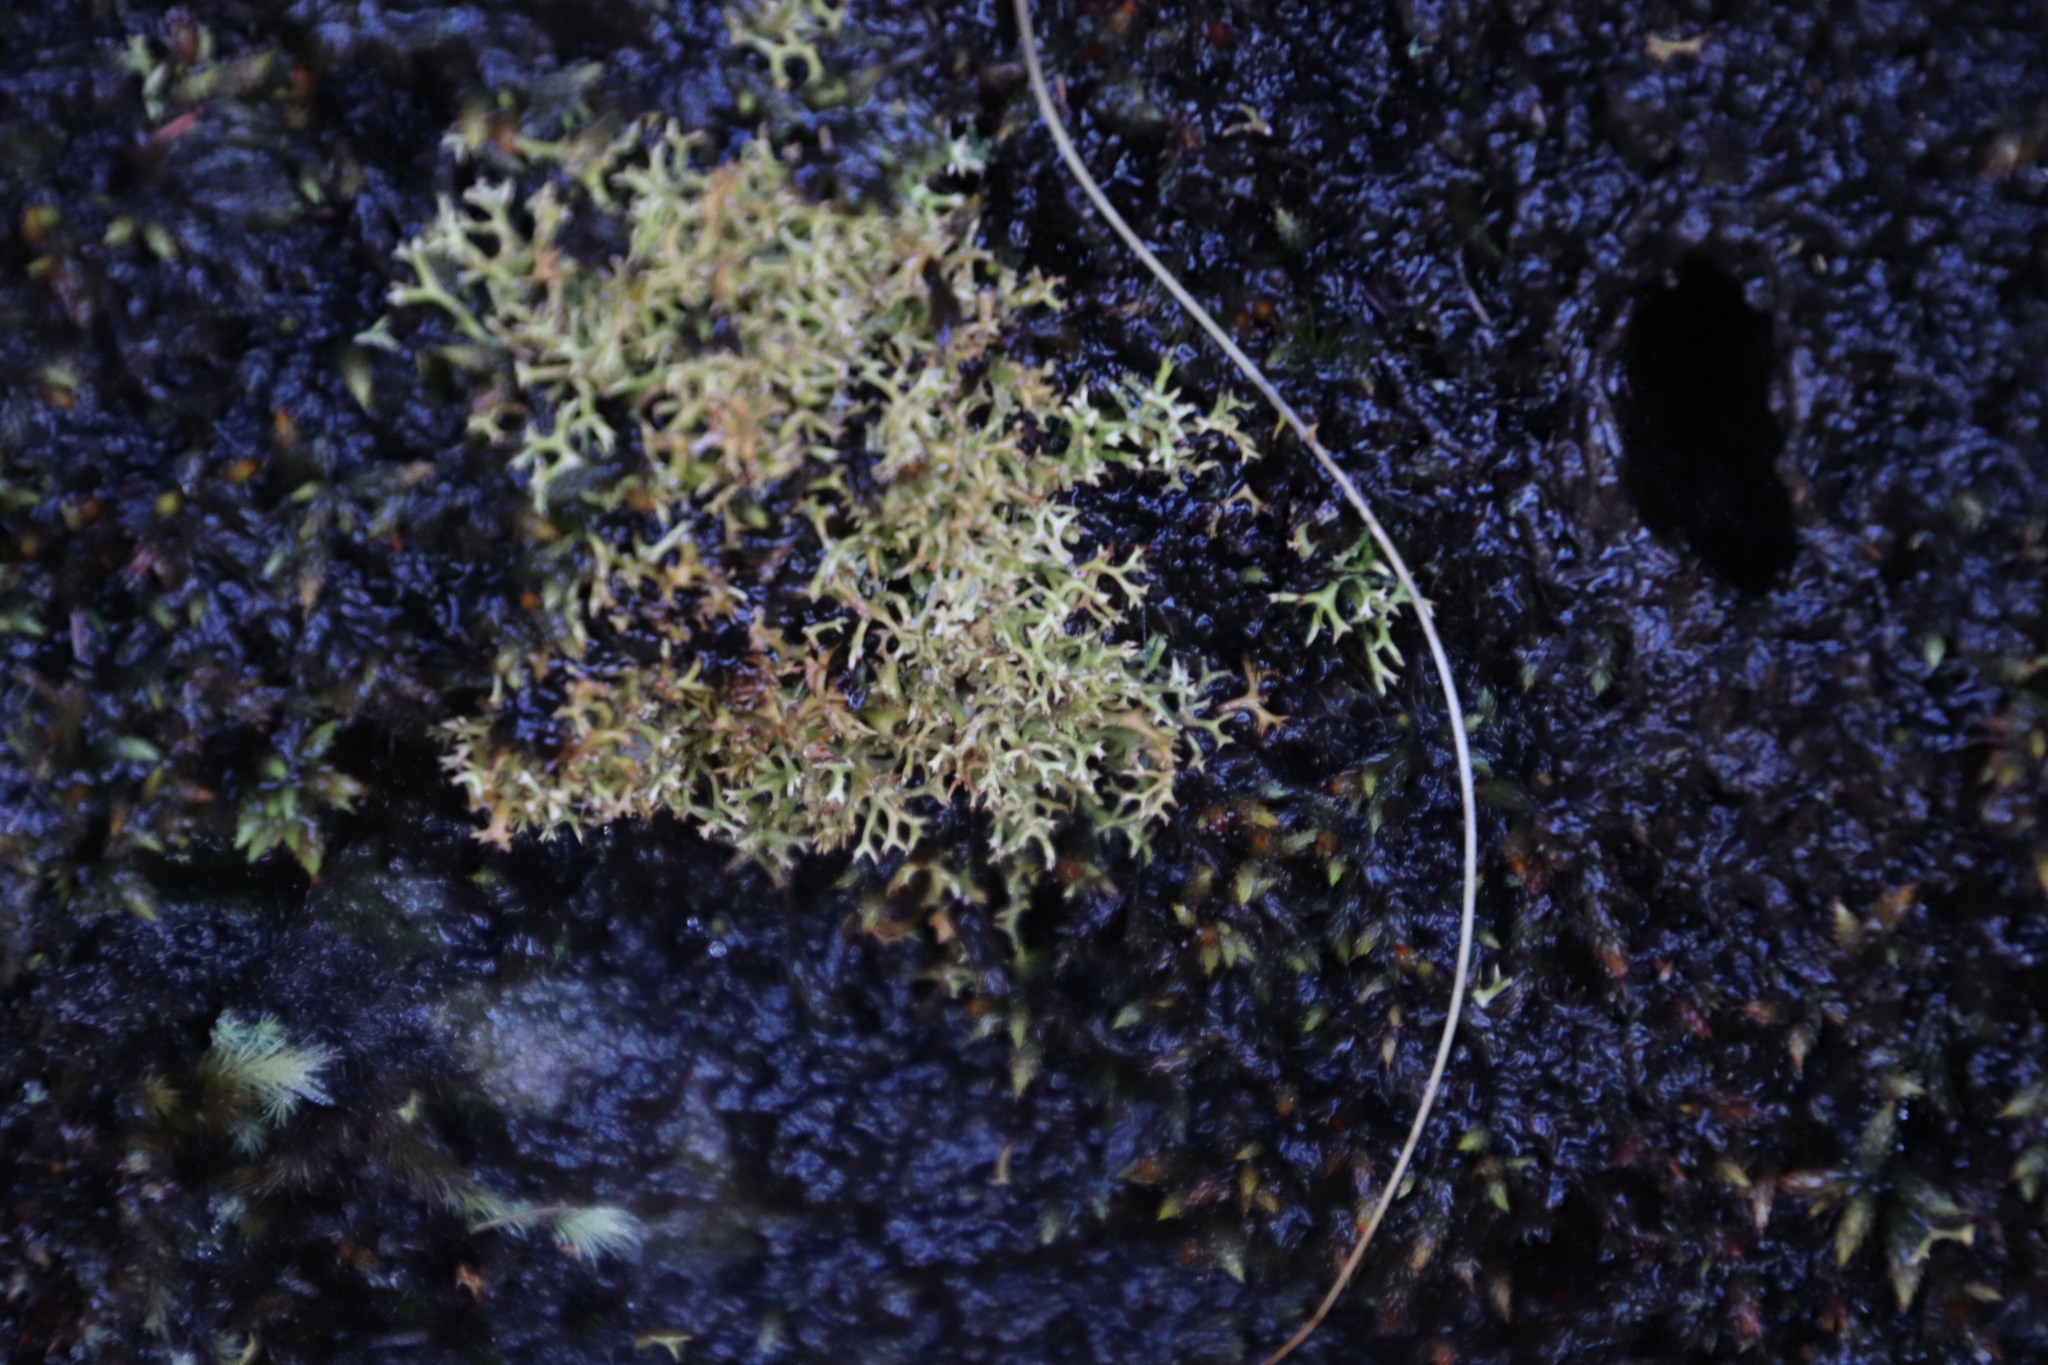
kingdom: Fungi
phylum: Ascomycota
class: Lecanoromycetes
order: Lecanorales
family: Cladoniaceae
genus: Cladia
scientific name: Cladia aggregata
